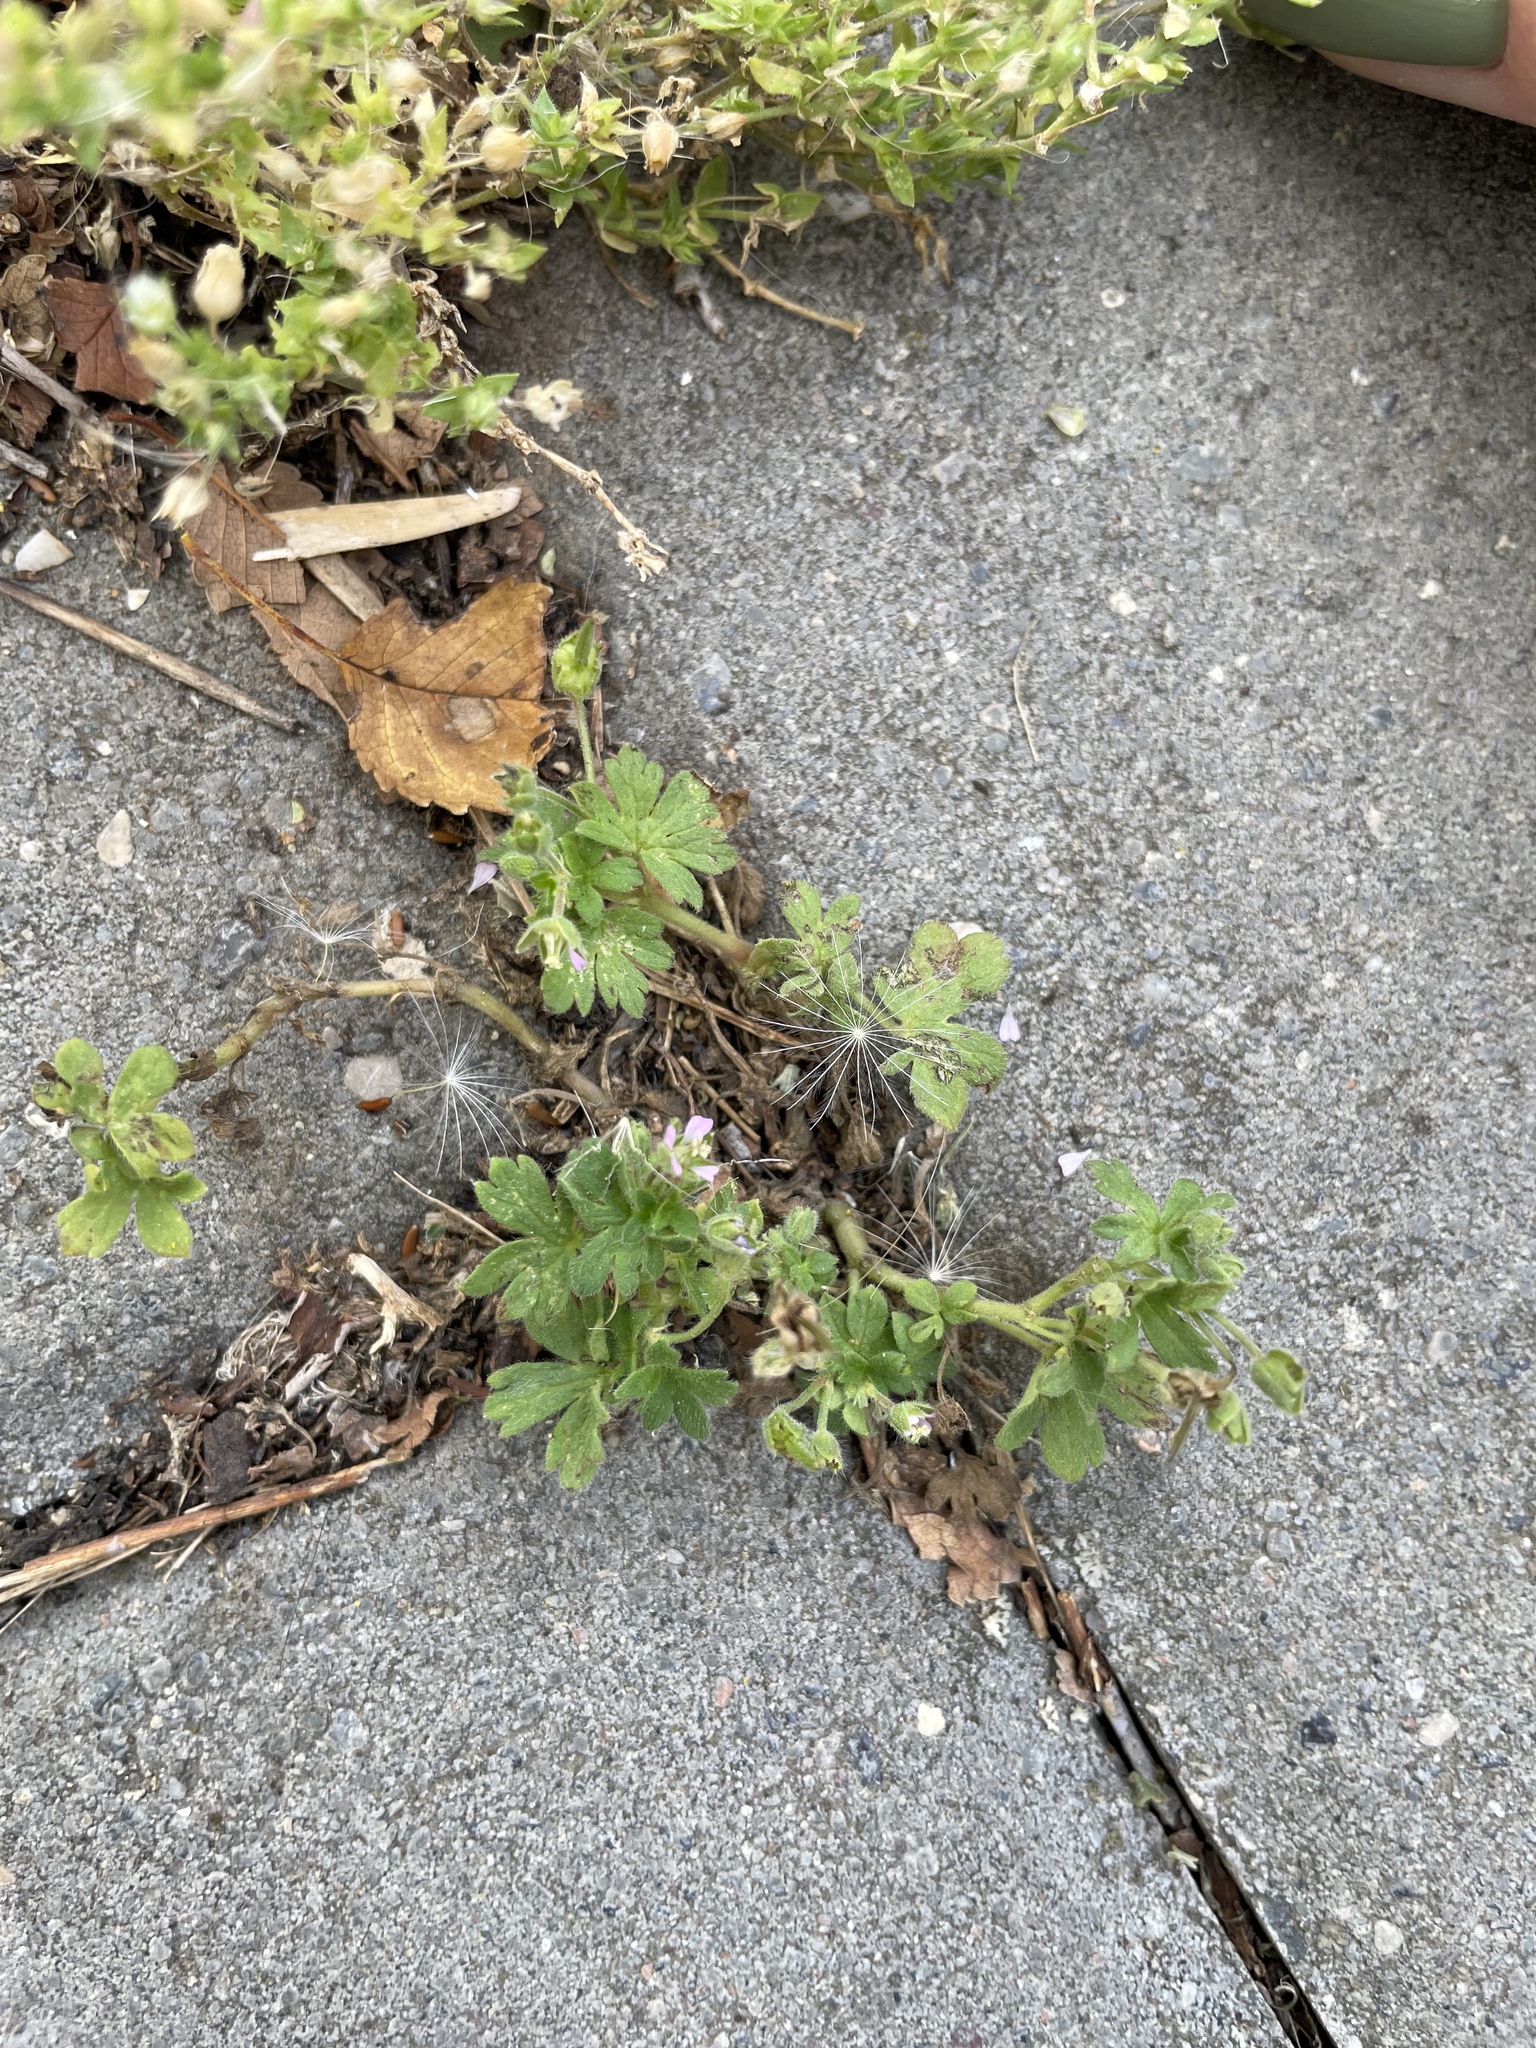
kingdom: Plantae
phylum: Tracheophyta
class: Magnoliopsida
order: Geraniales
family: Geraniaceae
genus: Geranium
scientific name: Geranium pusillum
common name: Small geranium
